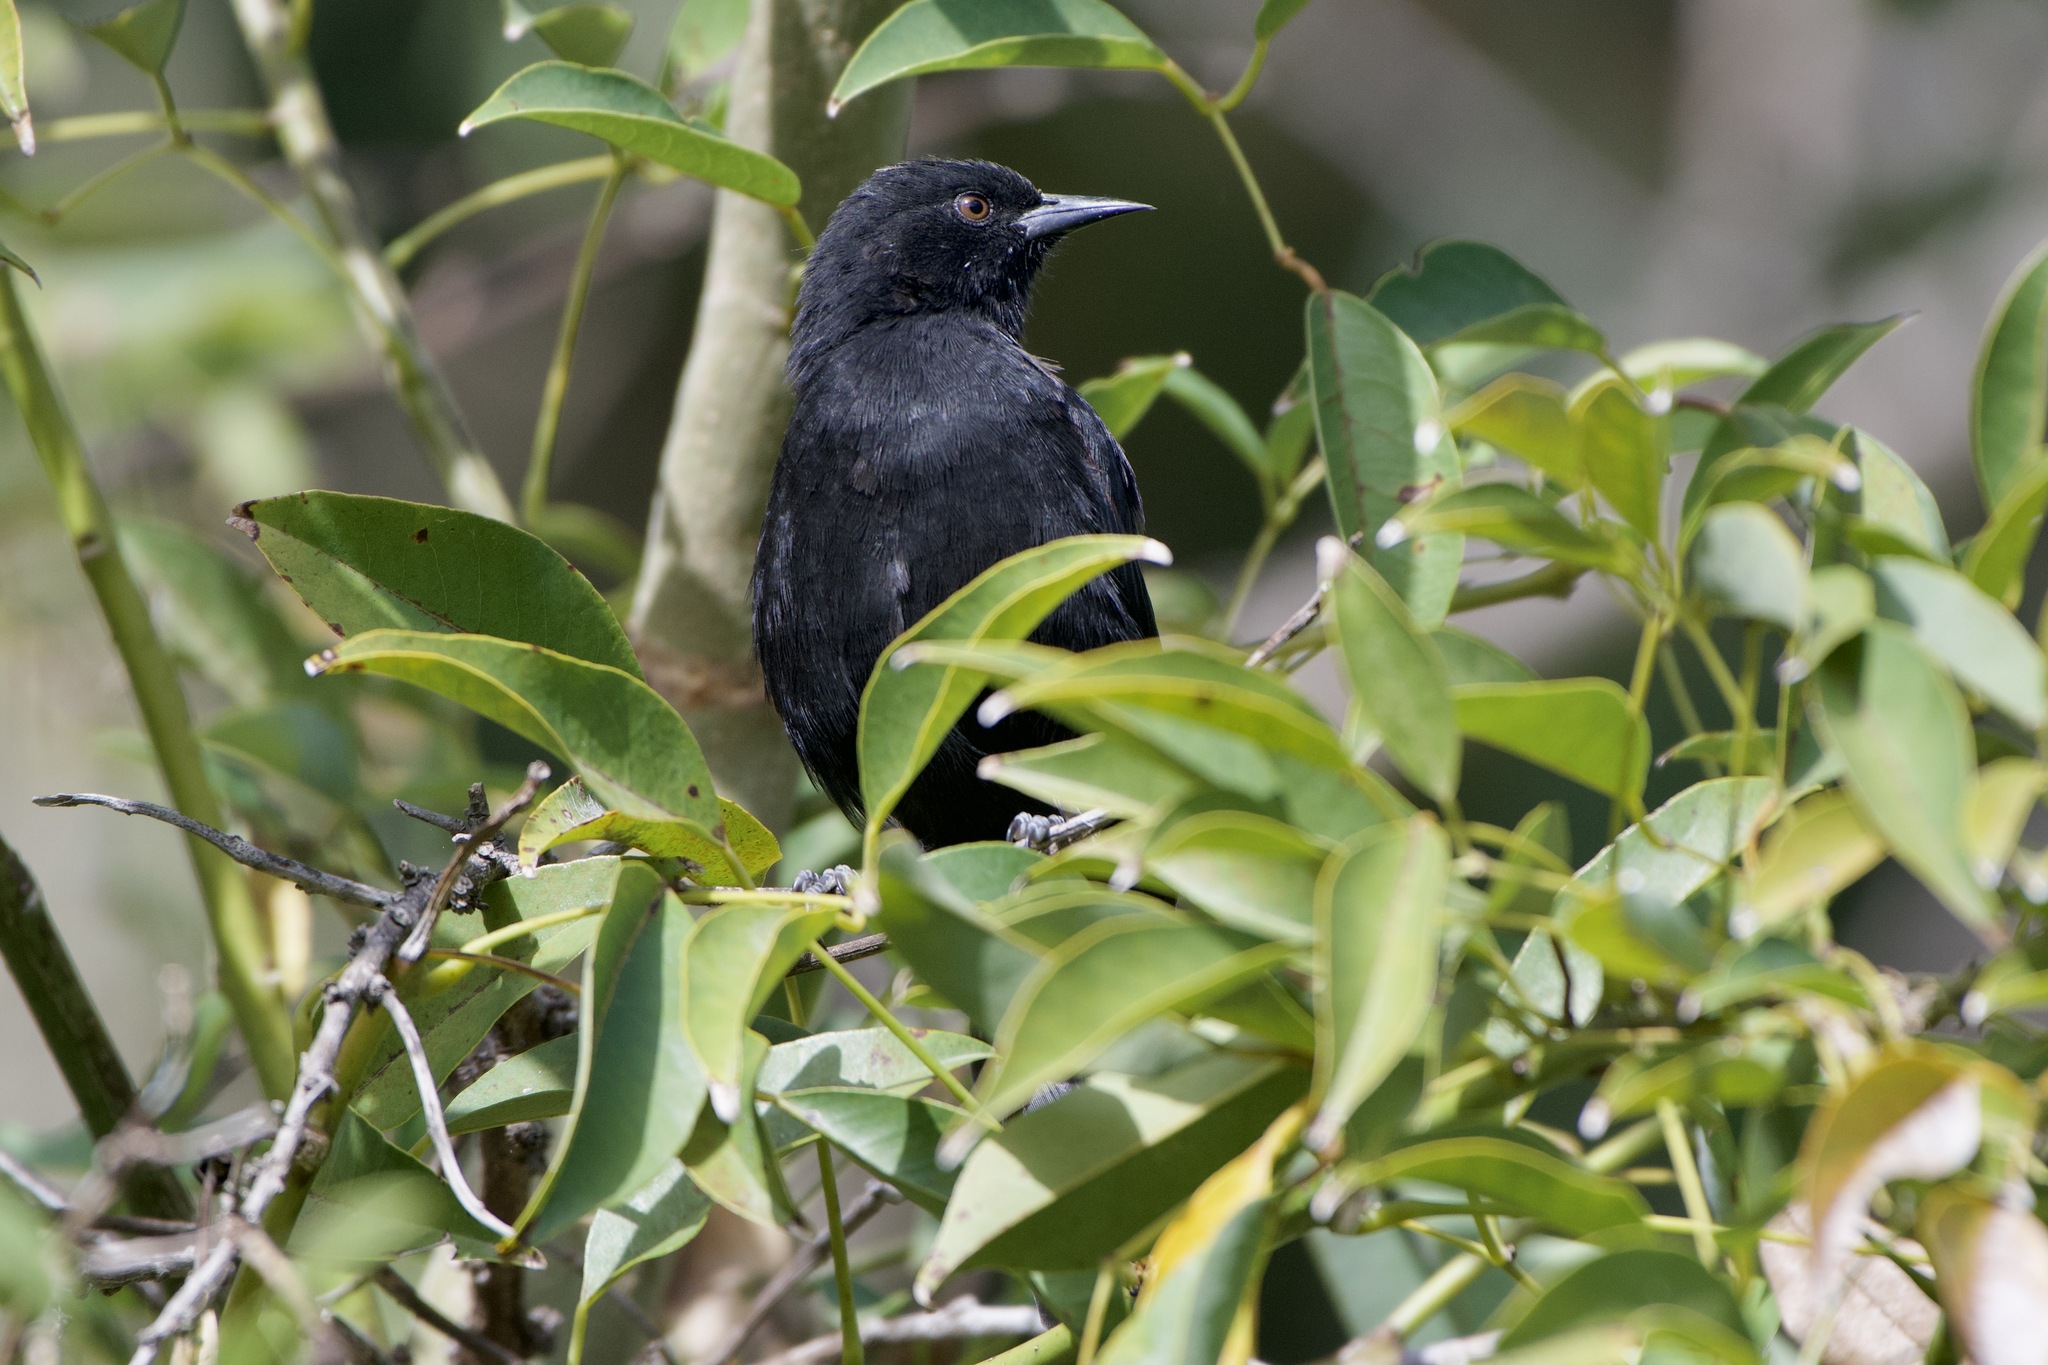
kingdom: Animalia
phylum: Chordata
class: Aves
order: Passeriformes
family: Icteridae
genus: Icterus
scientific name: Icterus cayanensis
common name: Epaulet oriole
